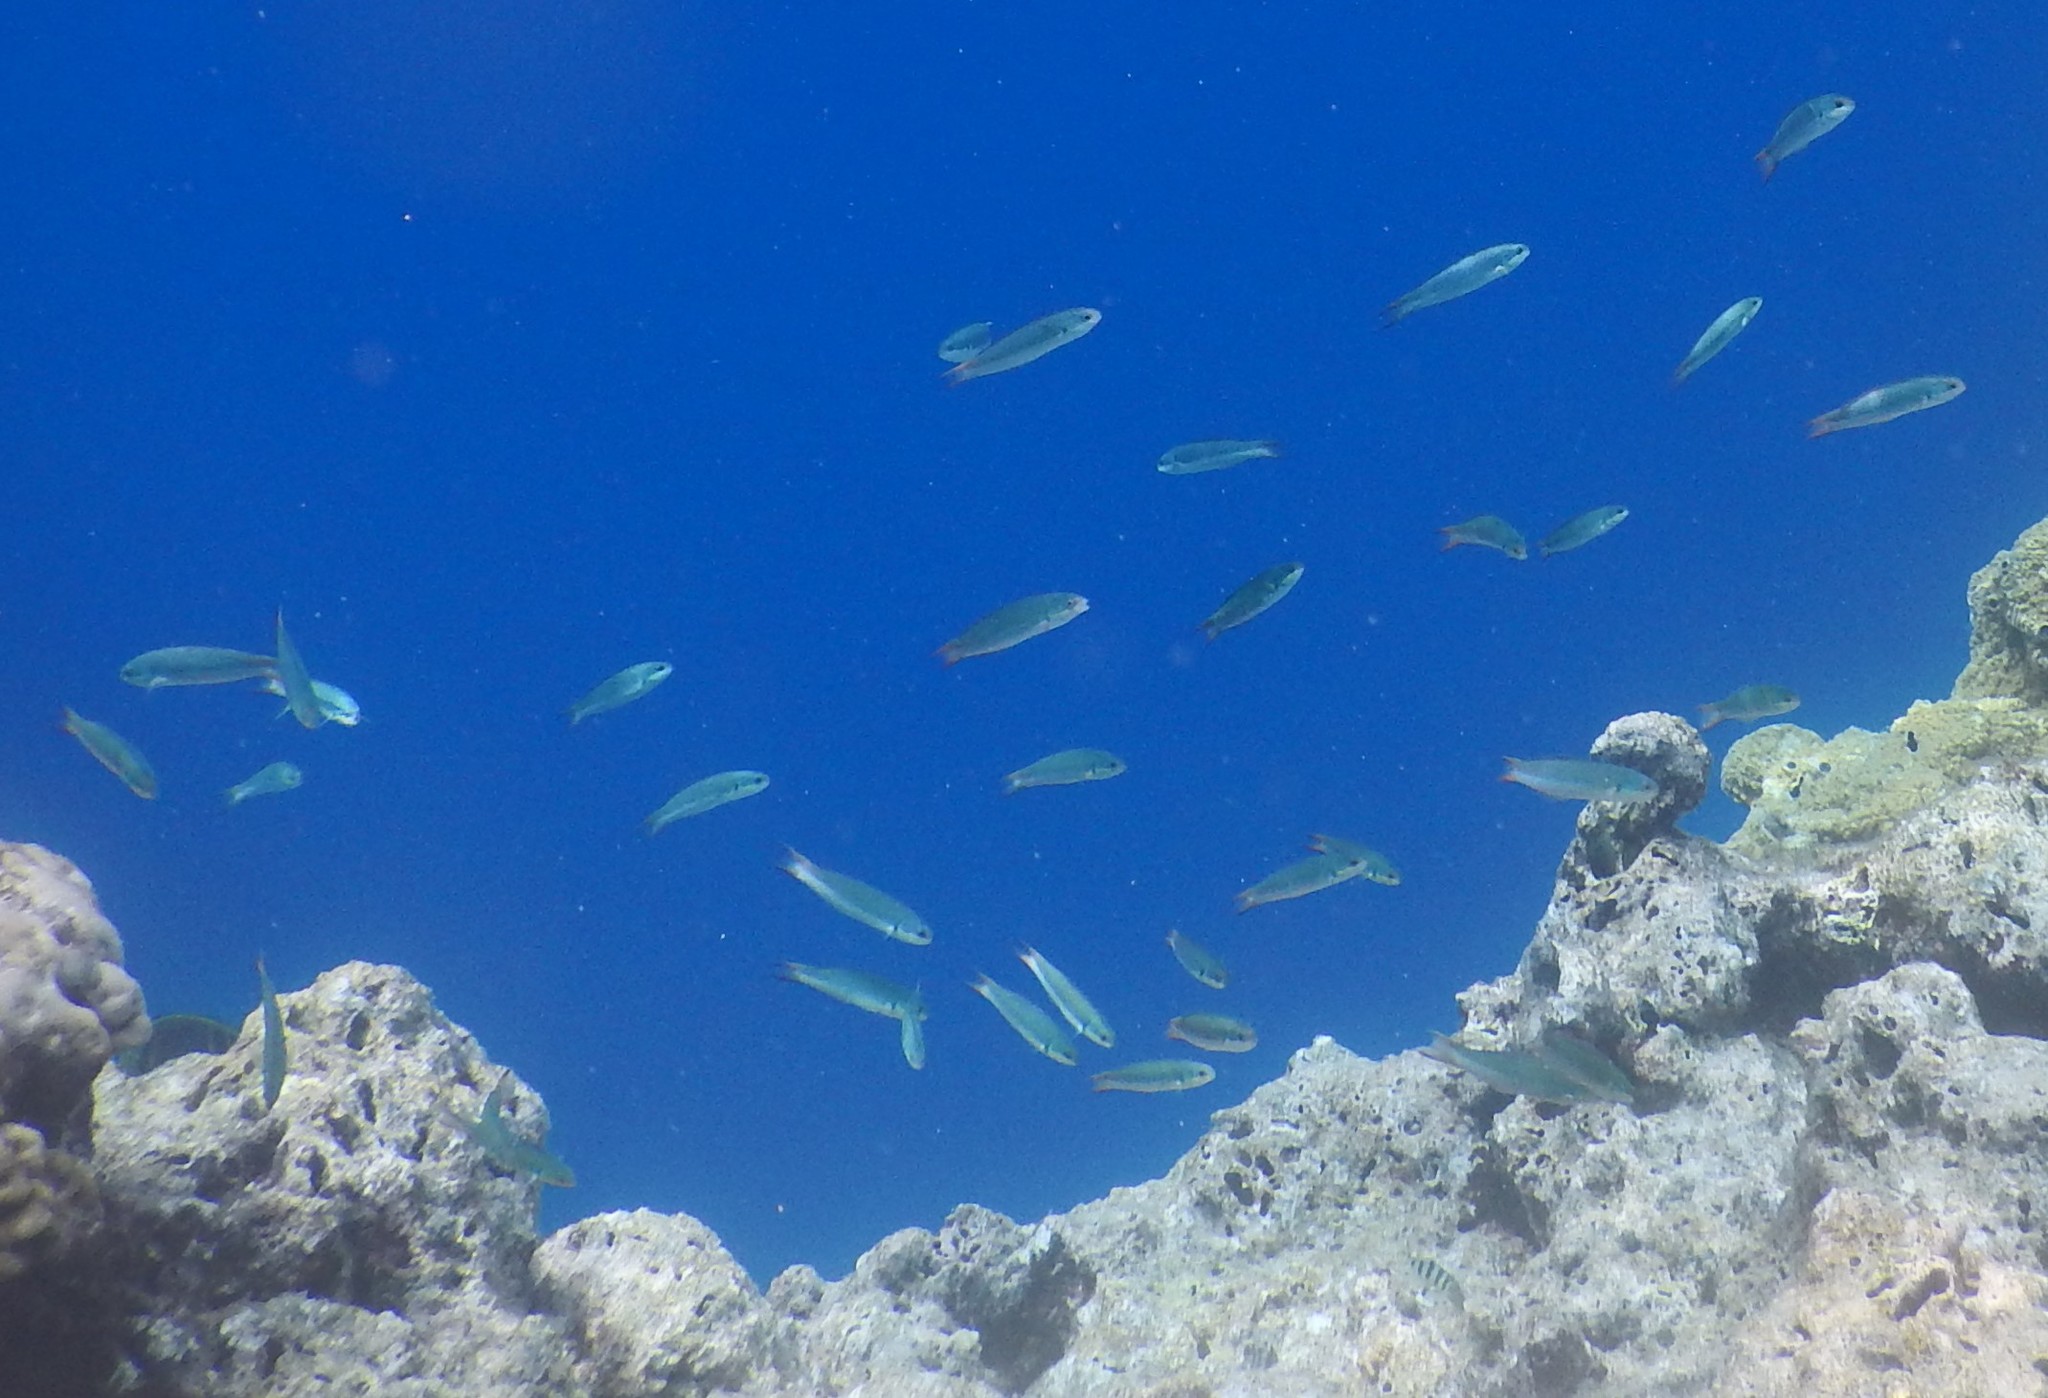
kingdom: Animalia
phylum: Chordata
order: Perciformes
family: Labridae
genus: Thalassoma
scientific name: Thalassoma amblycephalum
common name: Bluehead wrasse
